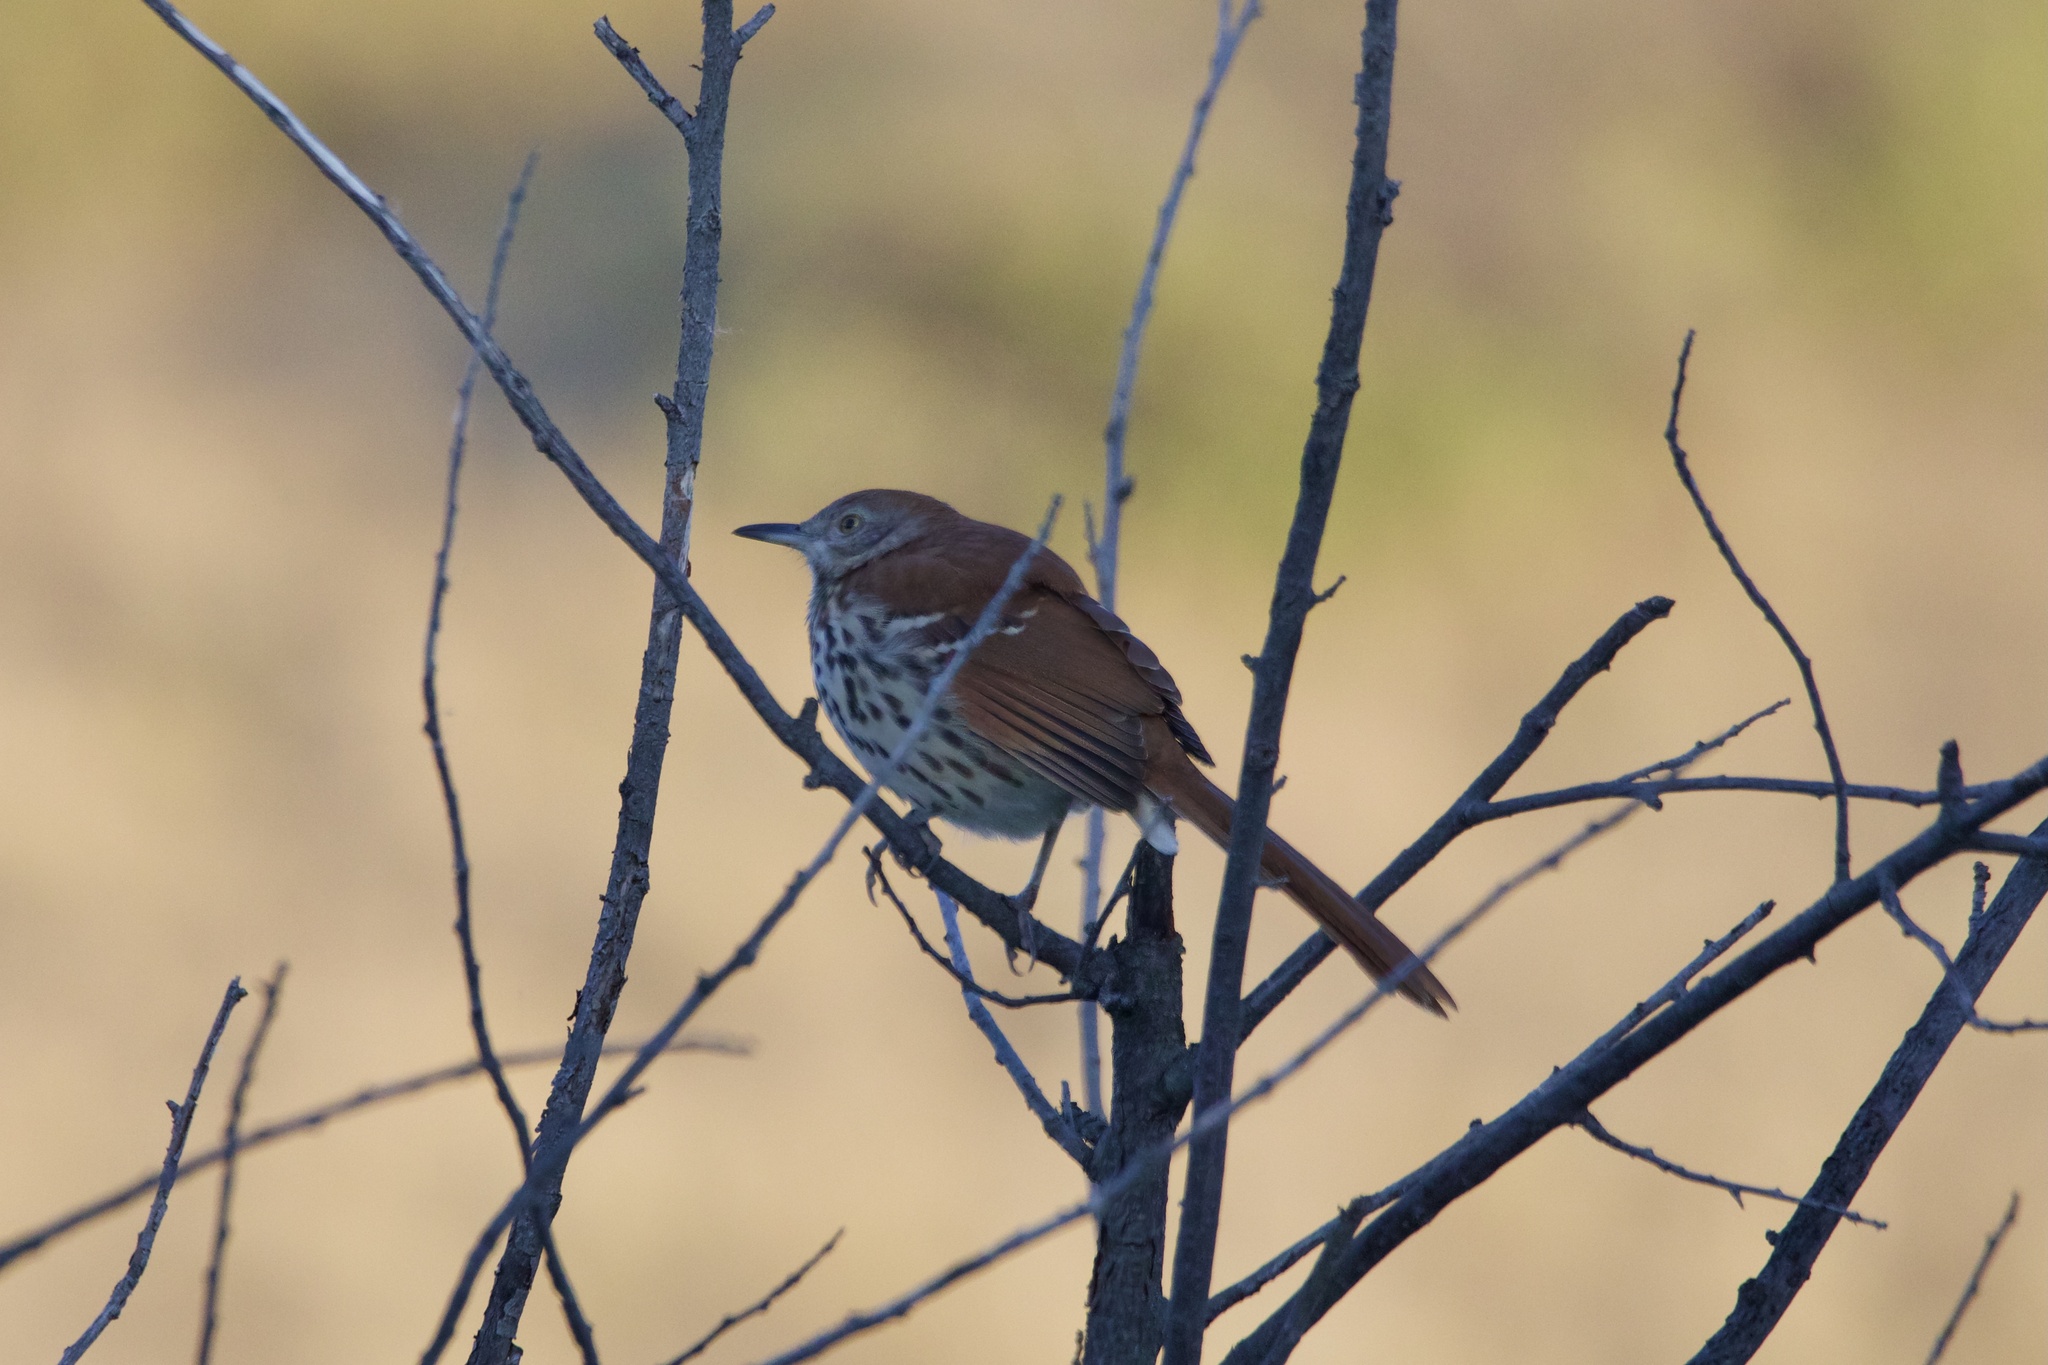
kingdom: Animalia
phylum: Chordata
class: Aves
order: Passeriformes
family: Mimidae
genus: Toxostoma
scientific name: Toxostoma rufum
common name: Brown thrasher
